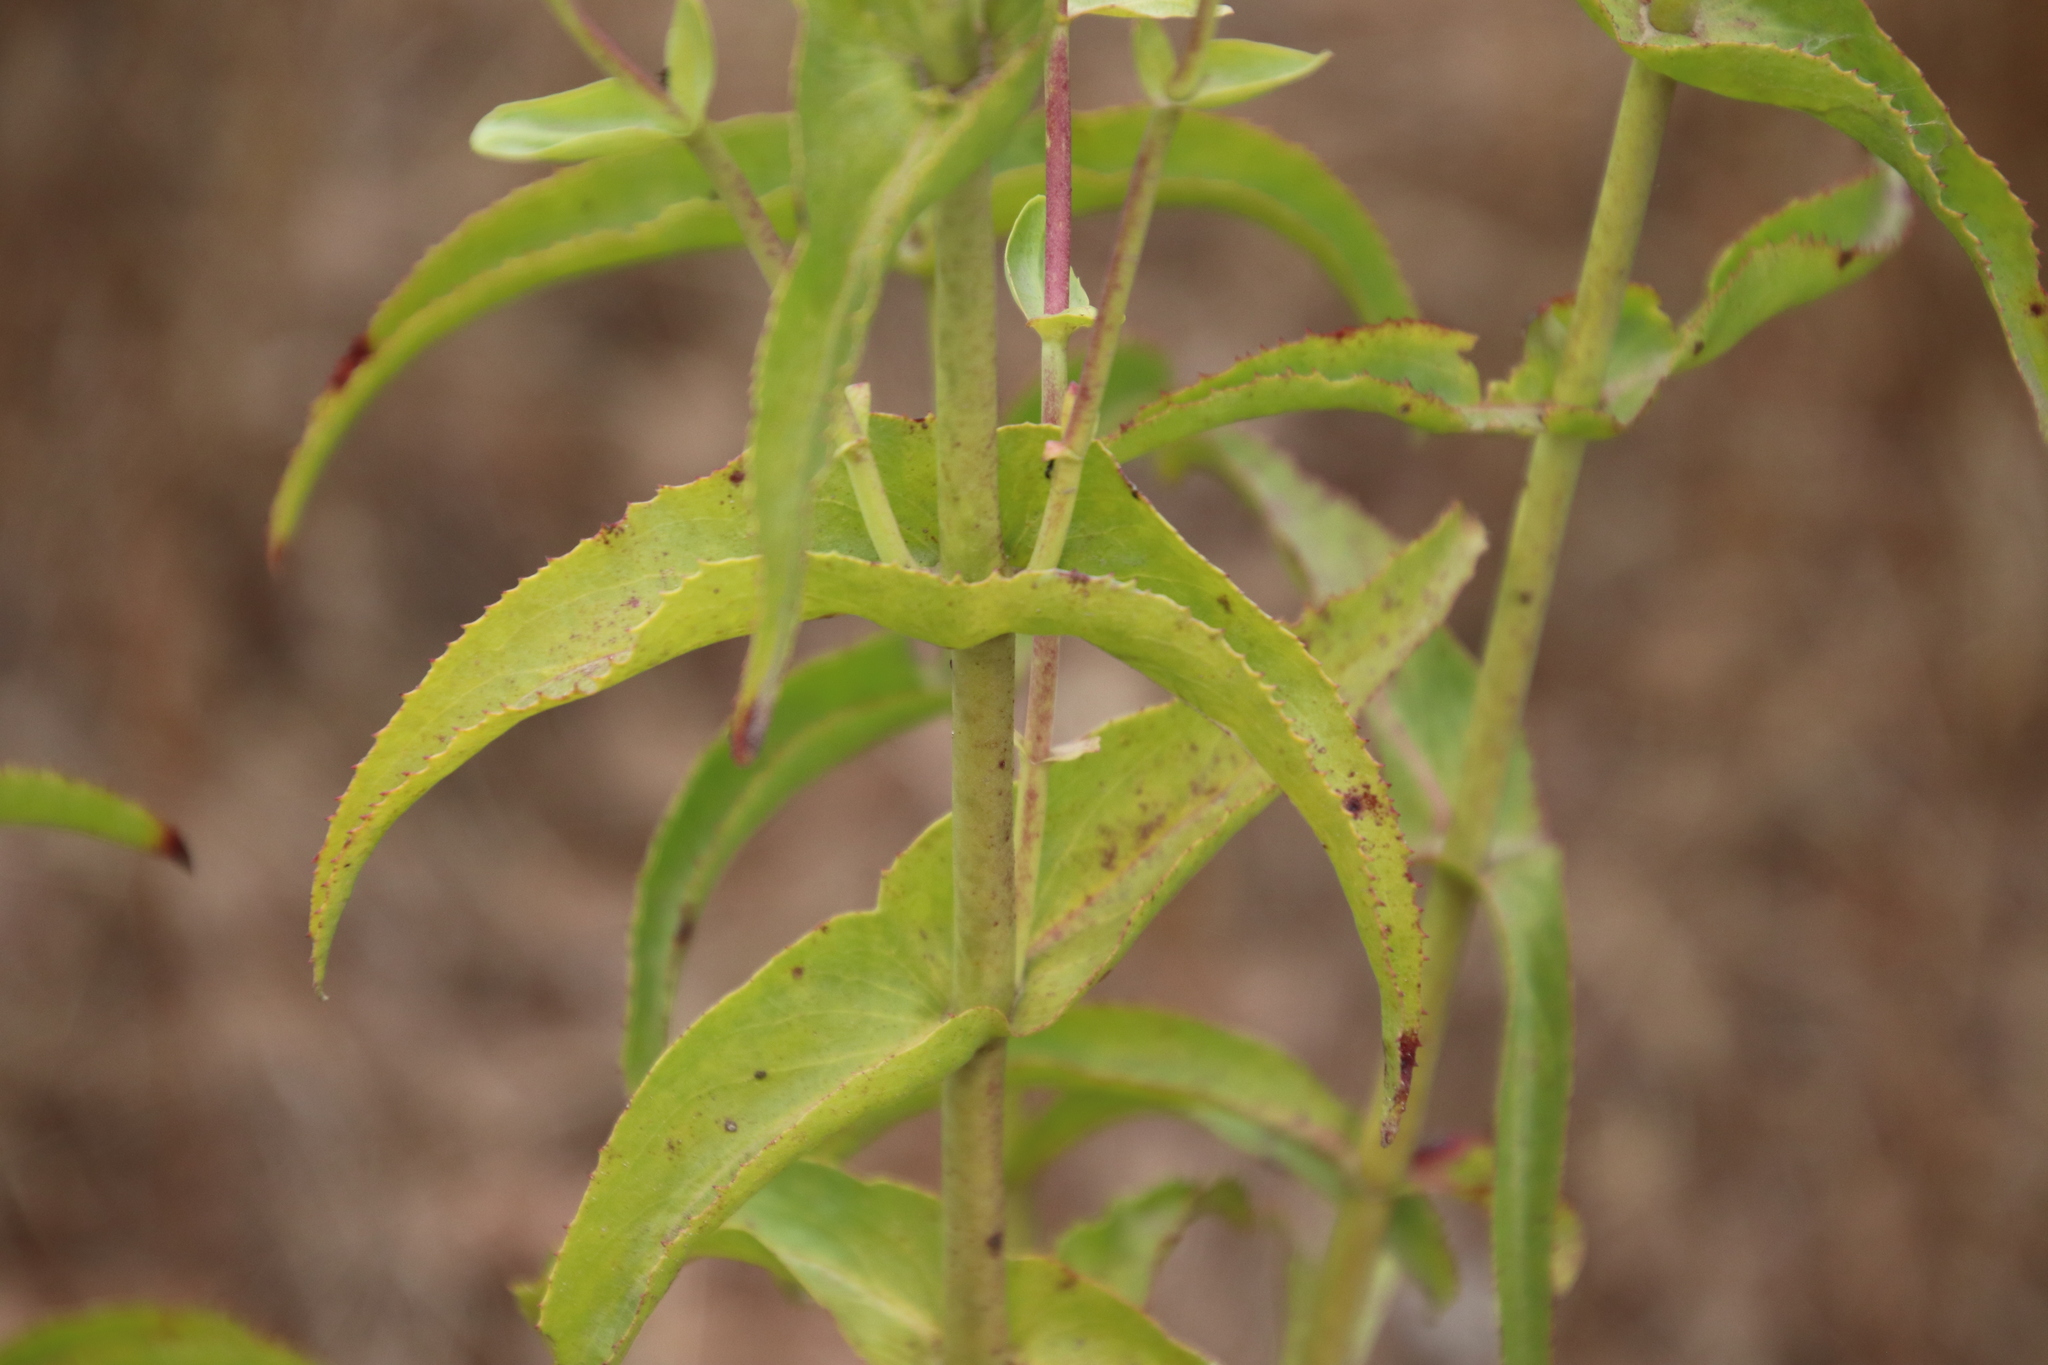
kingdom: Plantae
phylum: Tracheophyta
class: Magnoliopsida
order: Lamiales
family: Plantaginaceae
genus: Penstemon
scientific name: Penstemon spectabilis
